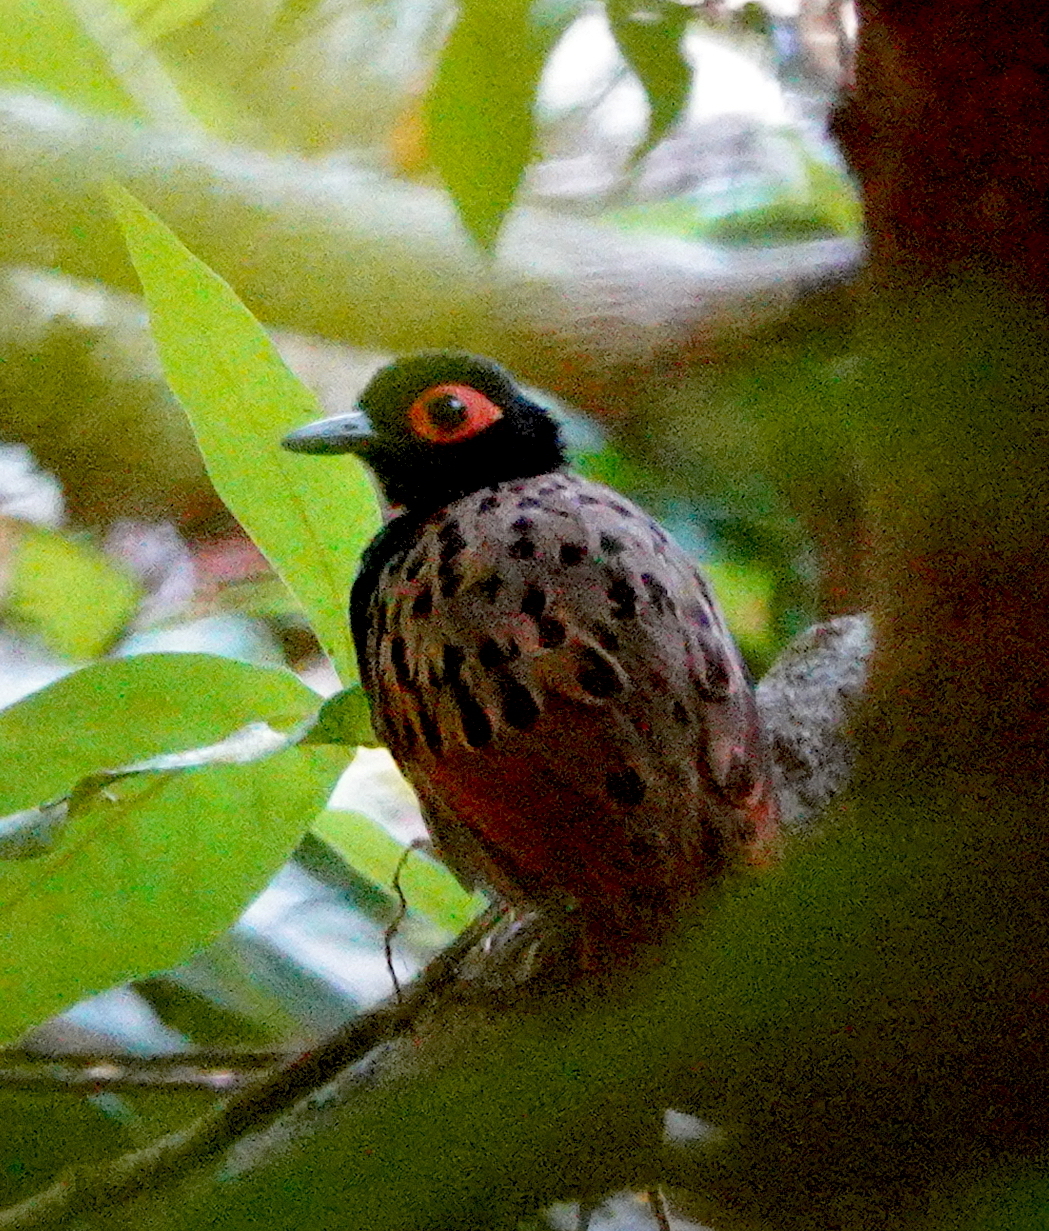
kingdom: Animalia
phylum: Chordata
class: Aves
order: Passeriformes
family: Thamnophilidae
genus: Phlegopsis
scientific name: Phlegopsis nigromaculata
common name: Black-spotted bare-eye
